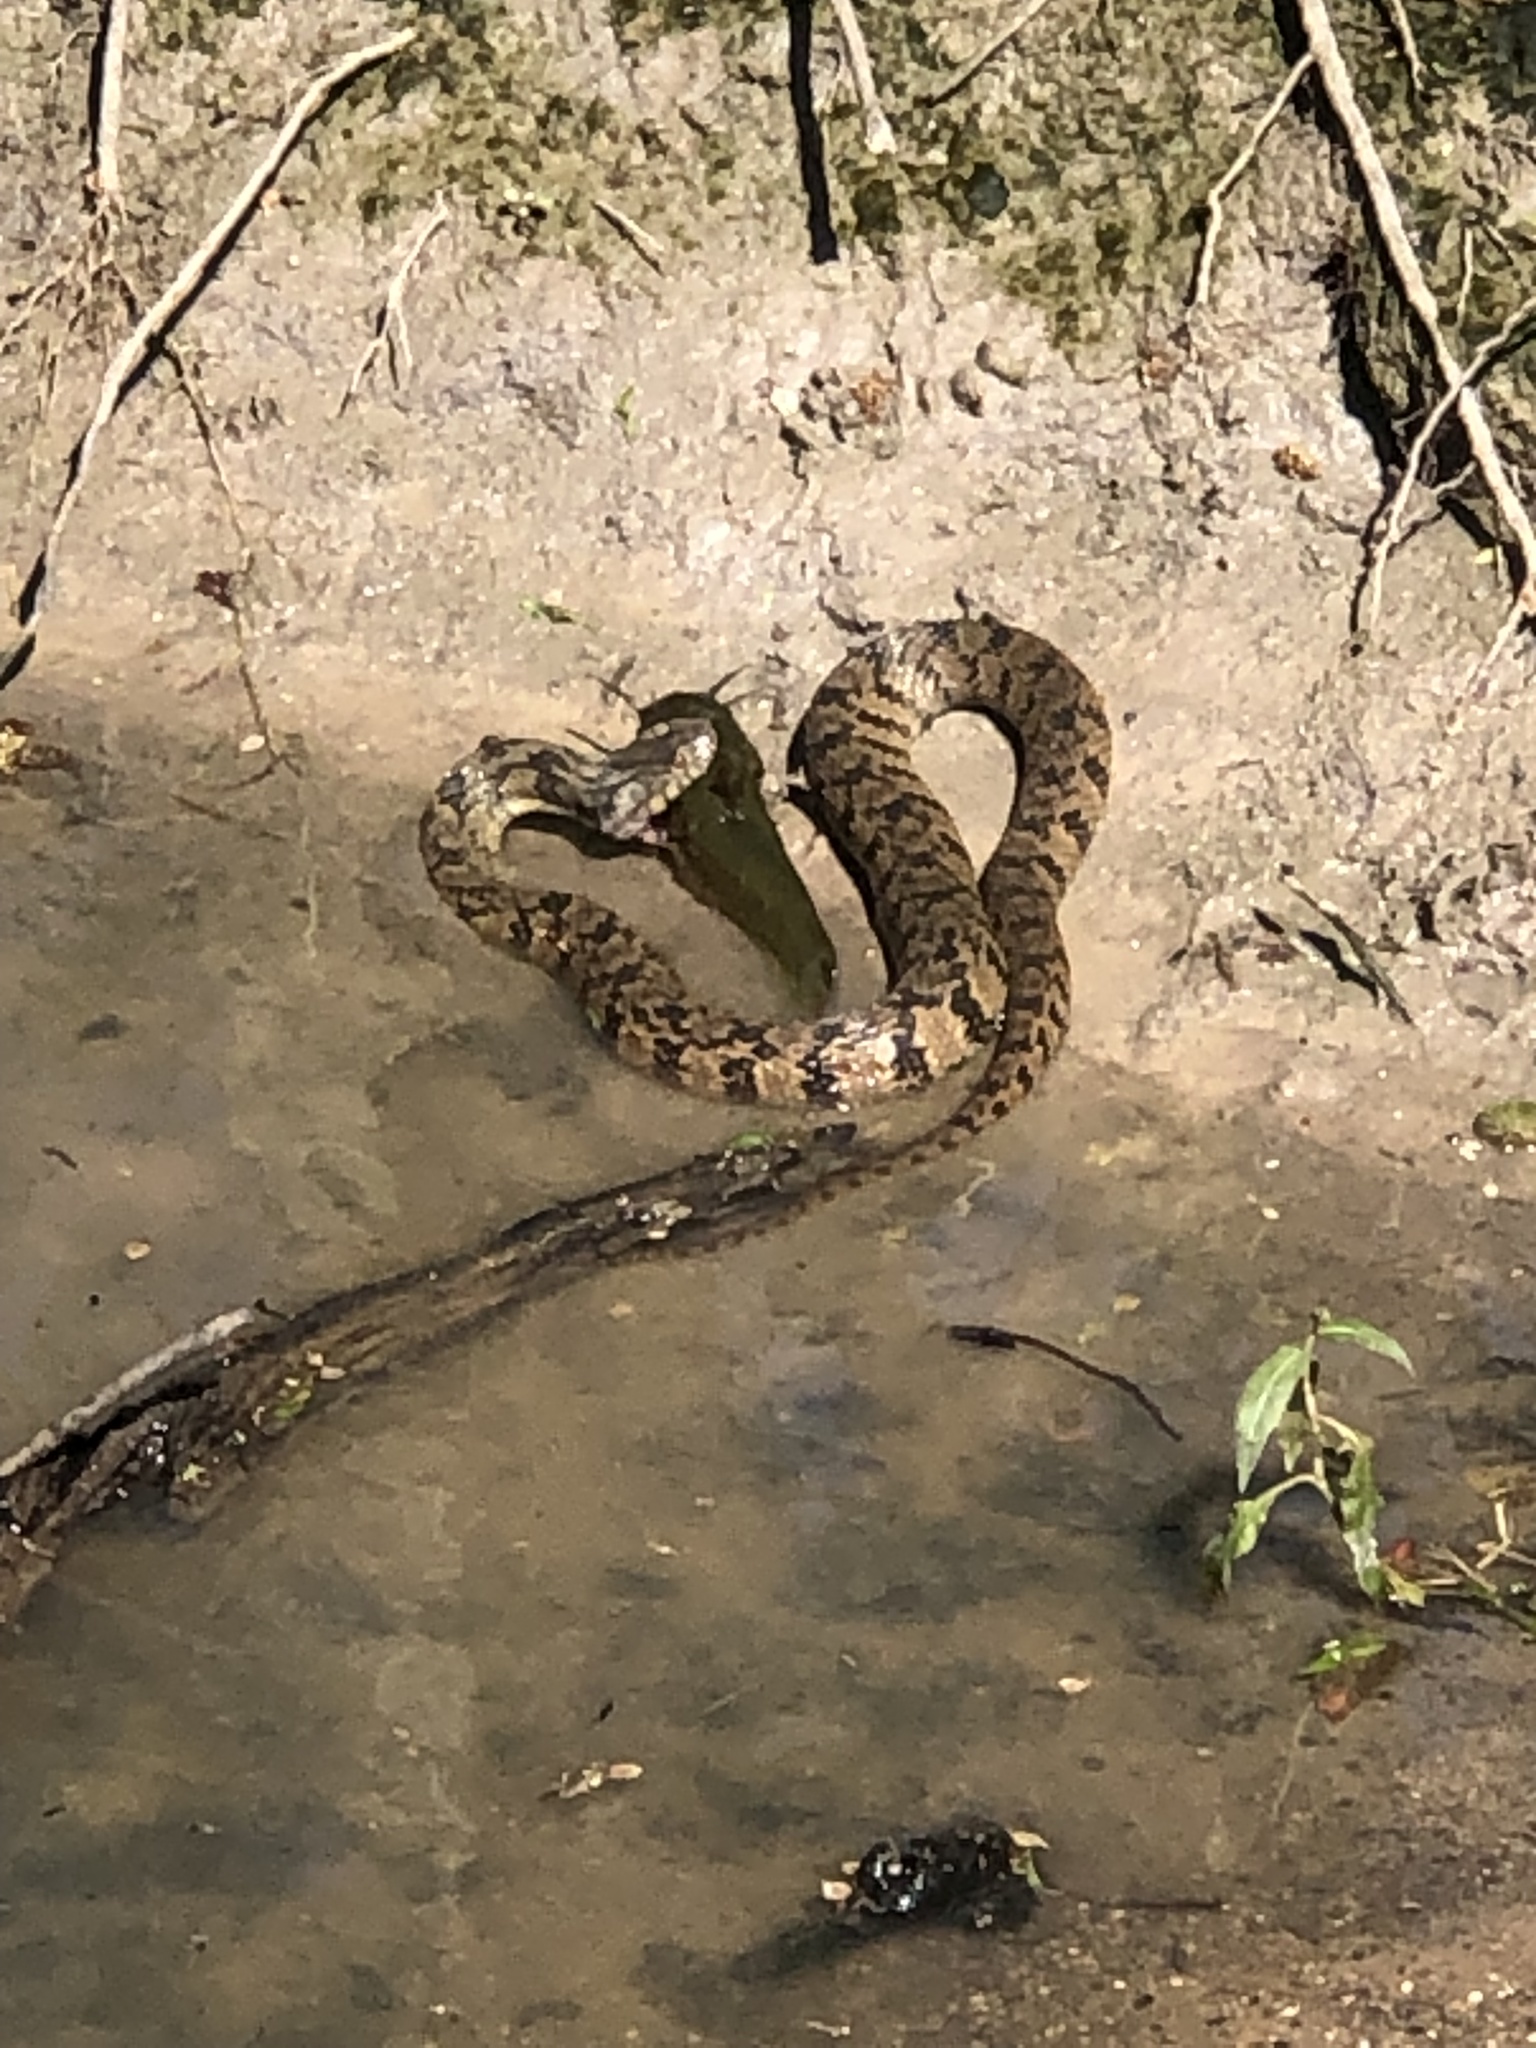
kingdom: Animalia
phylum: Chordata
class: Squamata
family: Colubridae
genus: Nerodia
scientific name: Nerodia rhombifer
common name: Diamondback water snake
